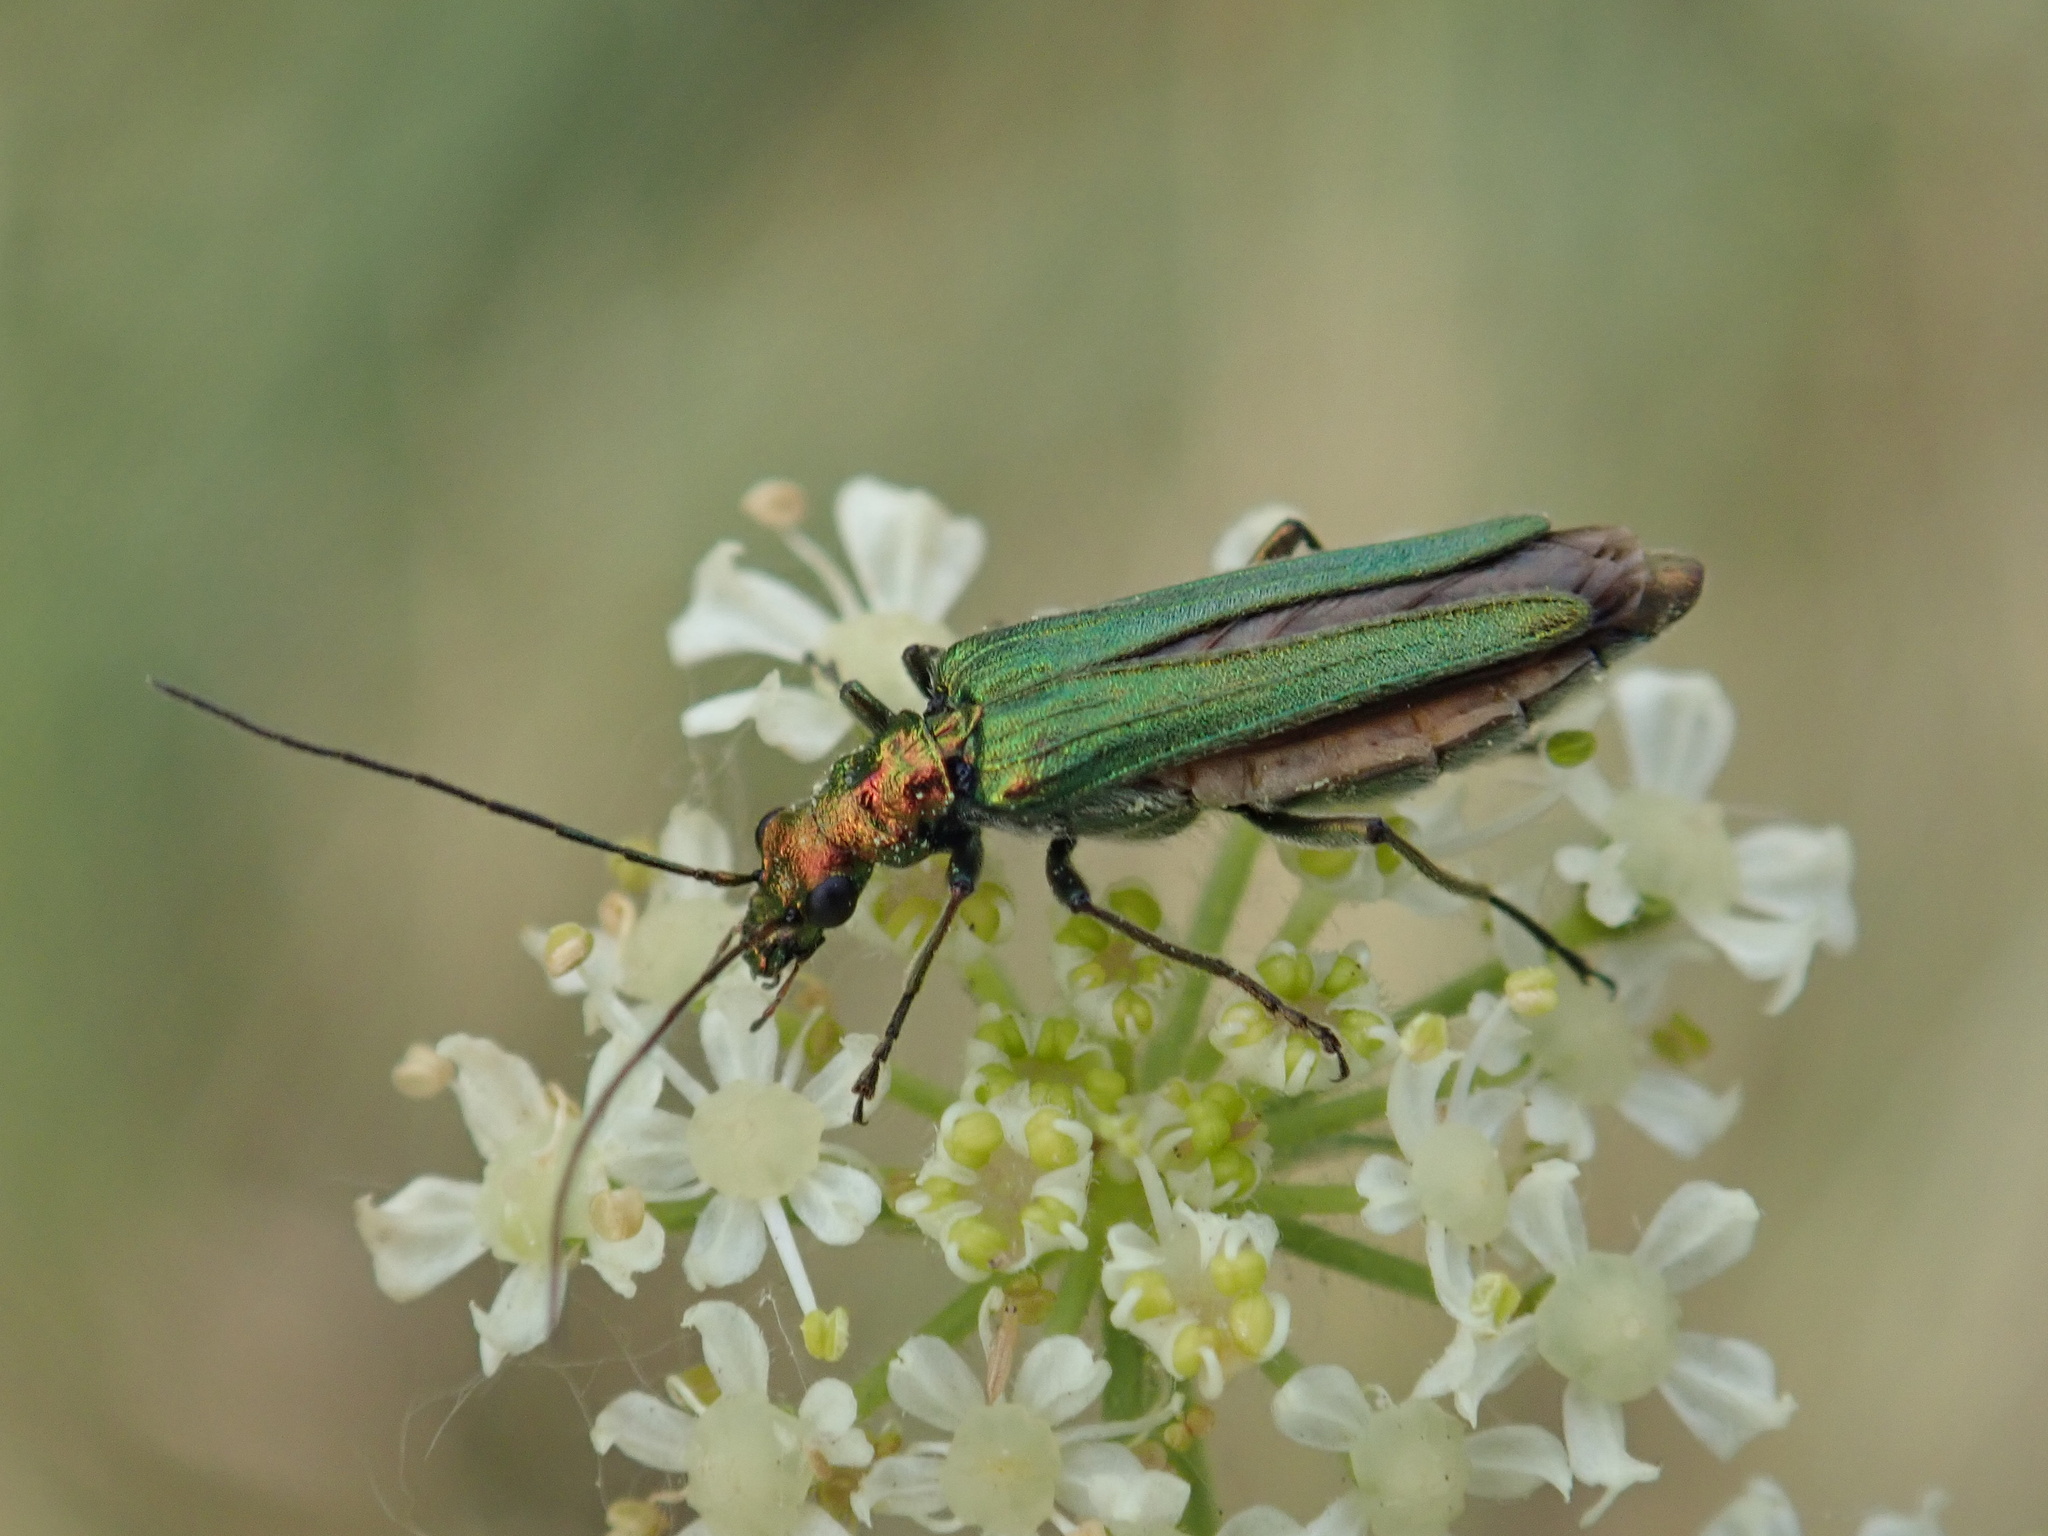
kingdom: Animalia
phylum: Arthropoda
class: Insecta
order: Coleoptera
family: Oedemeridae
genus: Oedemera
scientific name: Oedemera nobilis
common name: Swollen-thighed beetle
